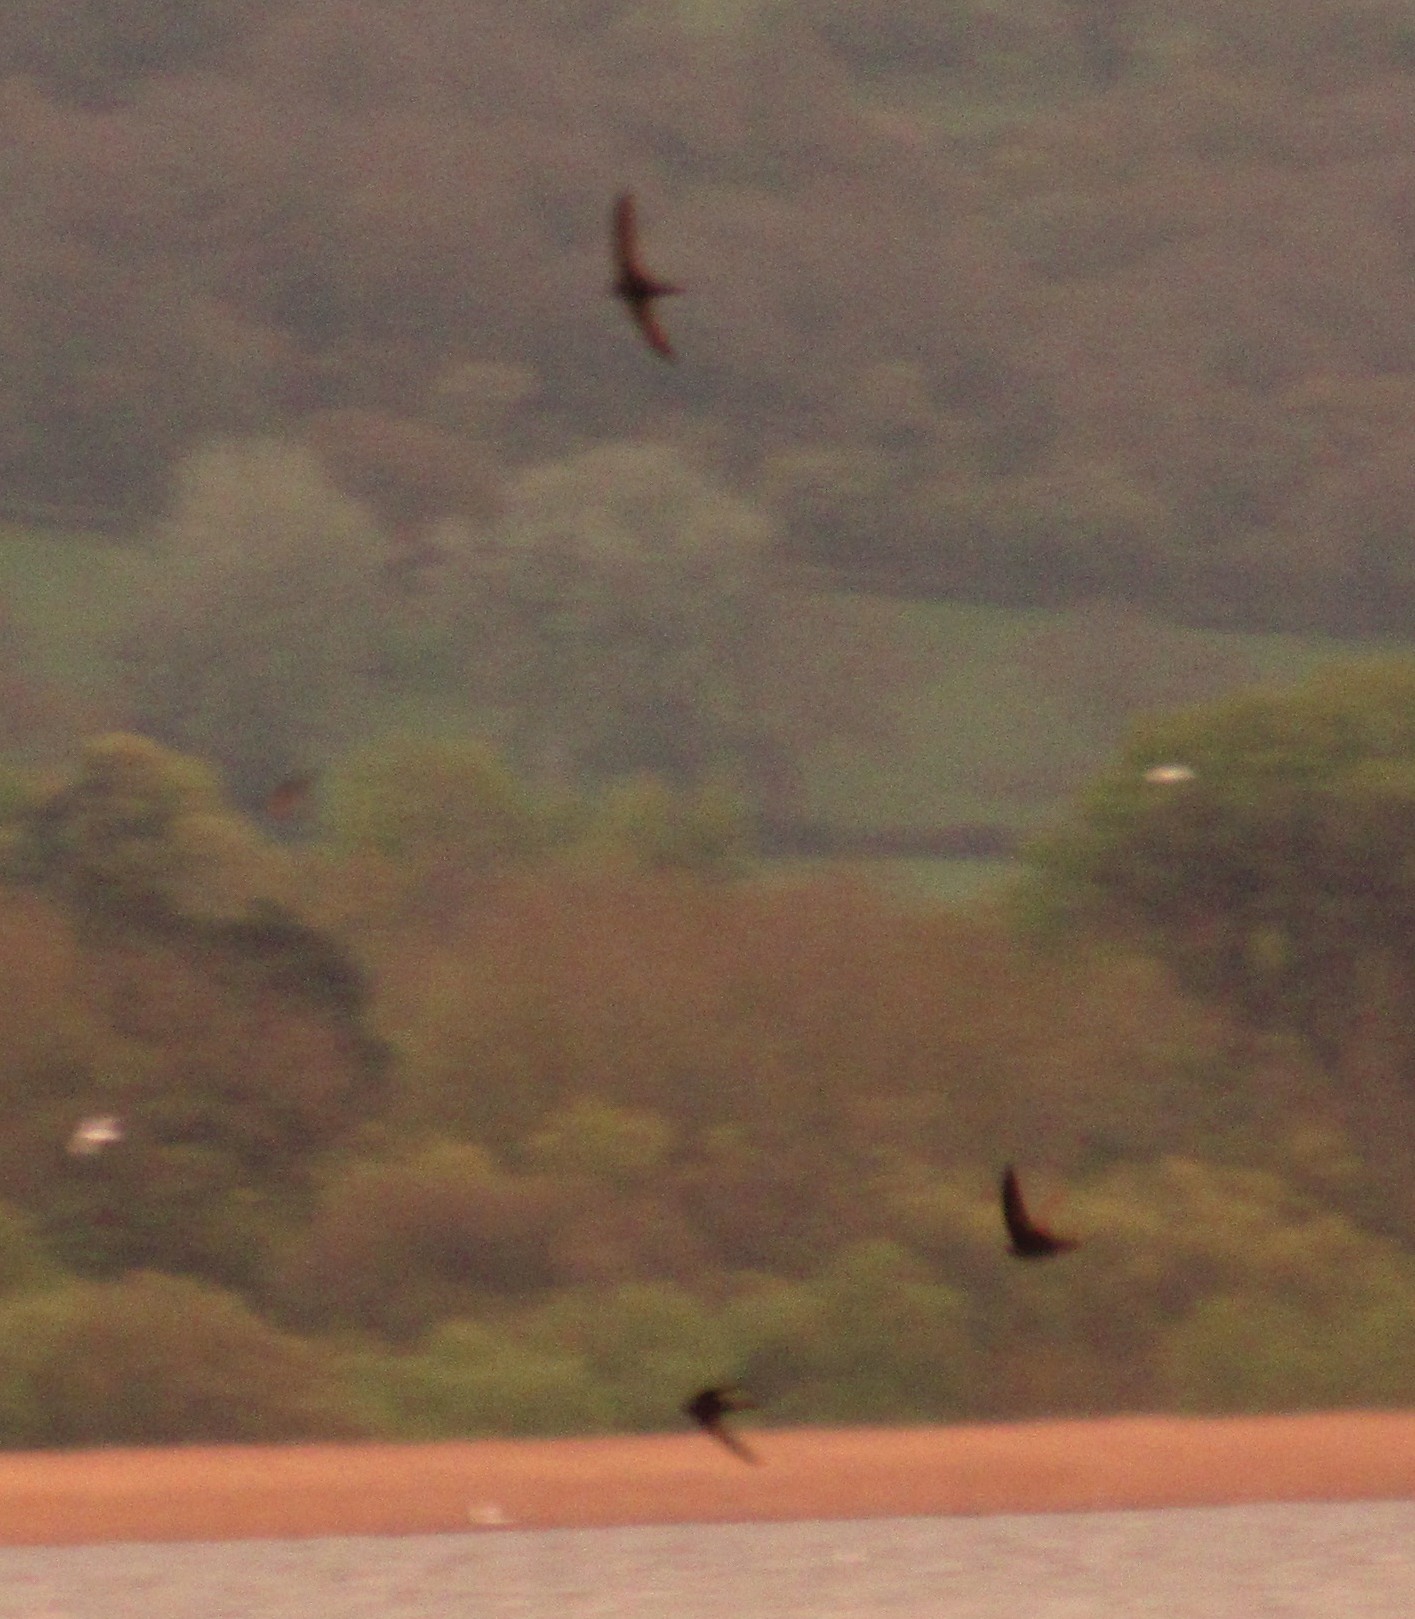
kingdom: Animalia
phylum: Chordata
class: Aves
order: Apodiformes
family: Apodidae
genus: Apus
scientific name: Apus apus
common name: Common swift
